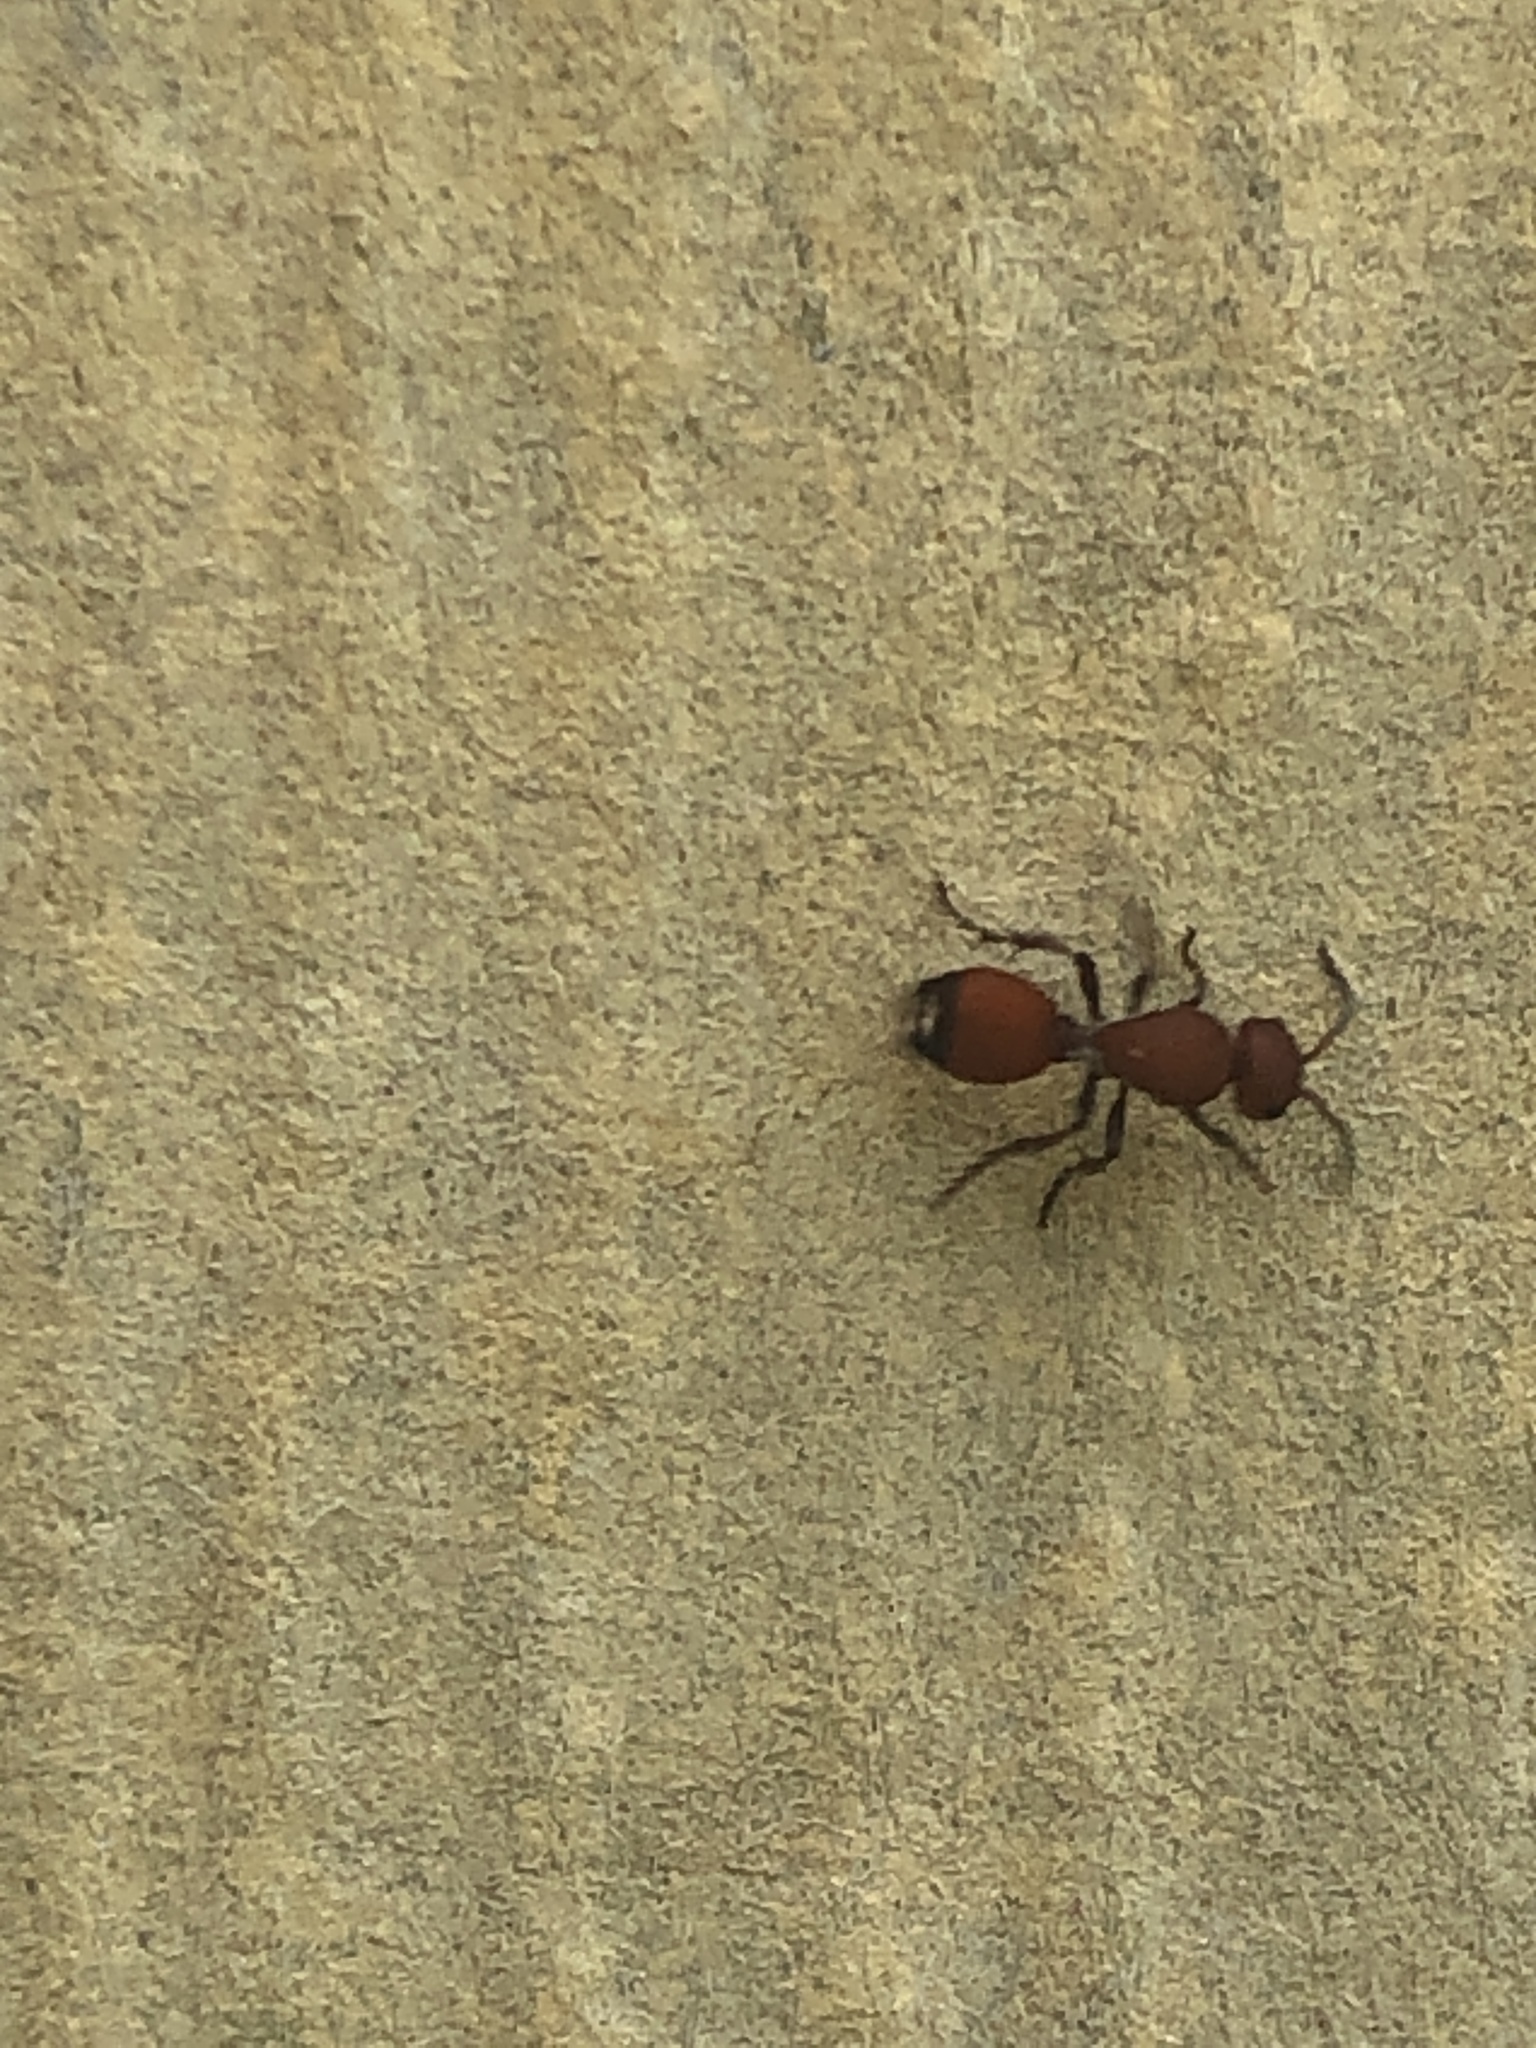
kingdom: Animalia
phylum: Arthropoda
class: Insecta
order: Hymenoptera
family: Mutillidae
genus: Dasymutilla
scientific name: Dasymutilla
